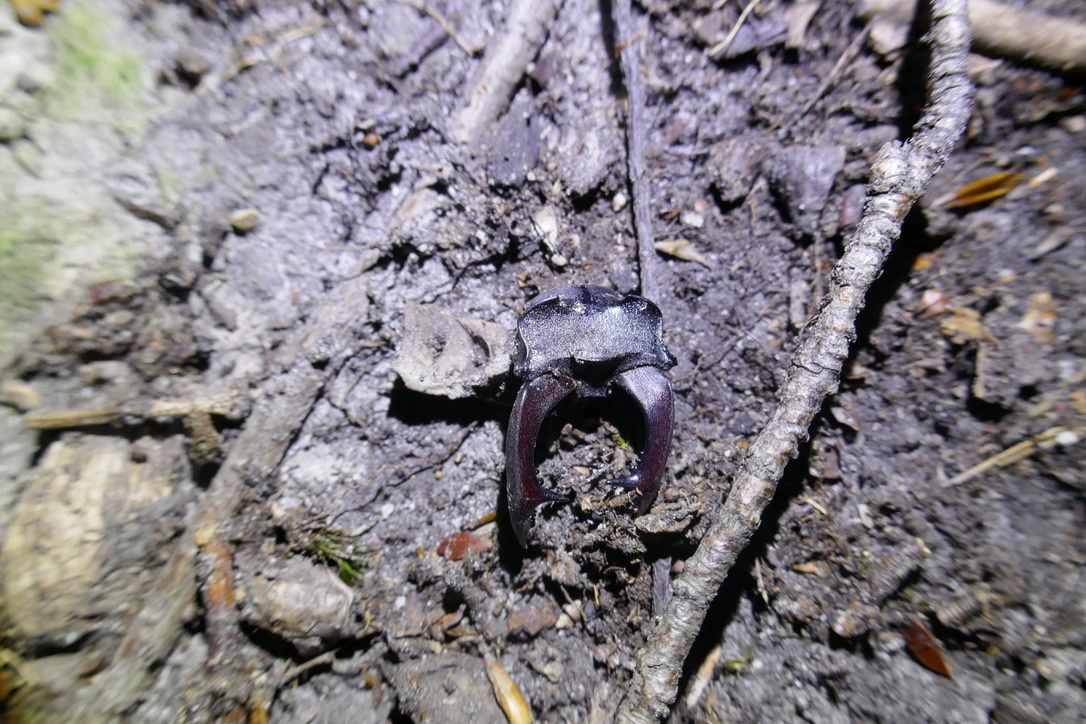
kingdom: Animalia
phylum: Arthropoda
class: Insecta
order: Coleoptera
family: Lucanidae
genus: Lucanus
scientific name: Lucanus cervus
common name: Stag beetle
